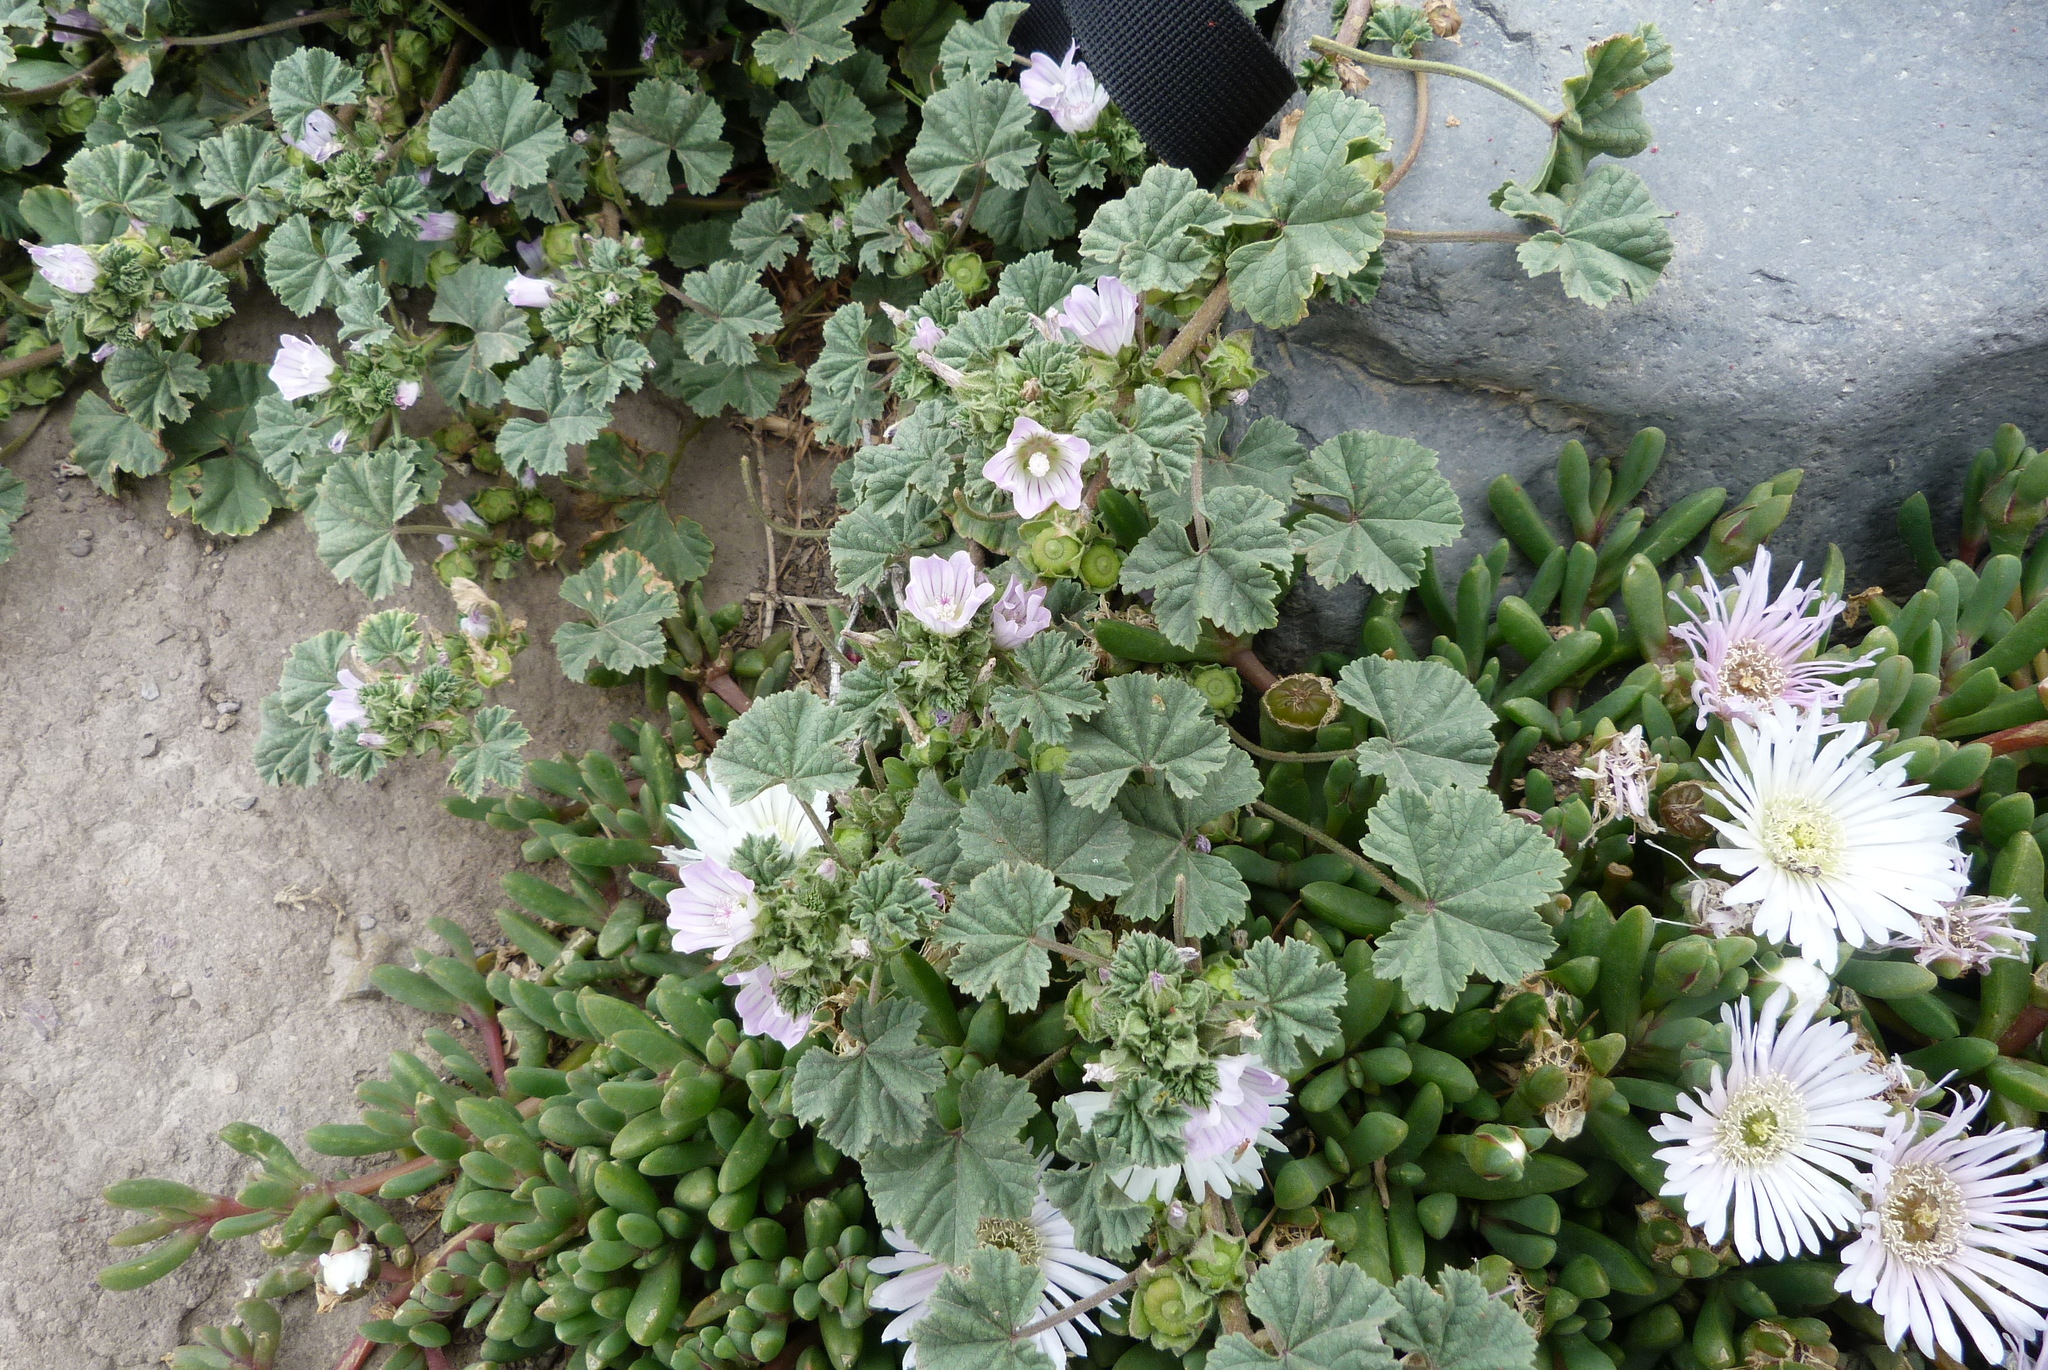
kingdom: Plantae
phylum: Tracheophyta
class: Magnoliopsida
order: Malvales
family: Malvaceae
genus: Malva
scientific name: Malva neglecta
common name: Common mallow
